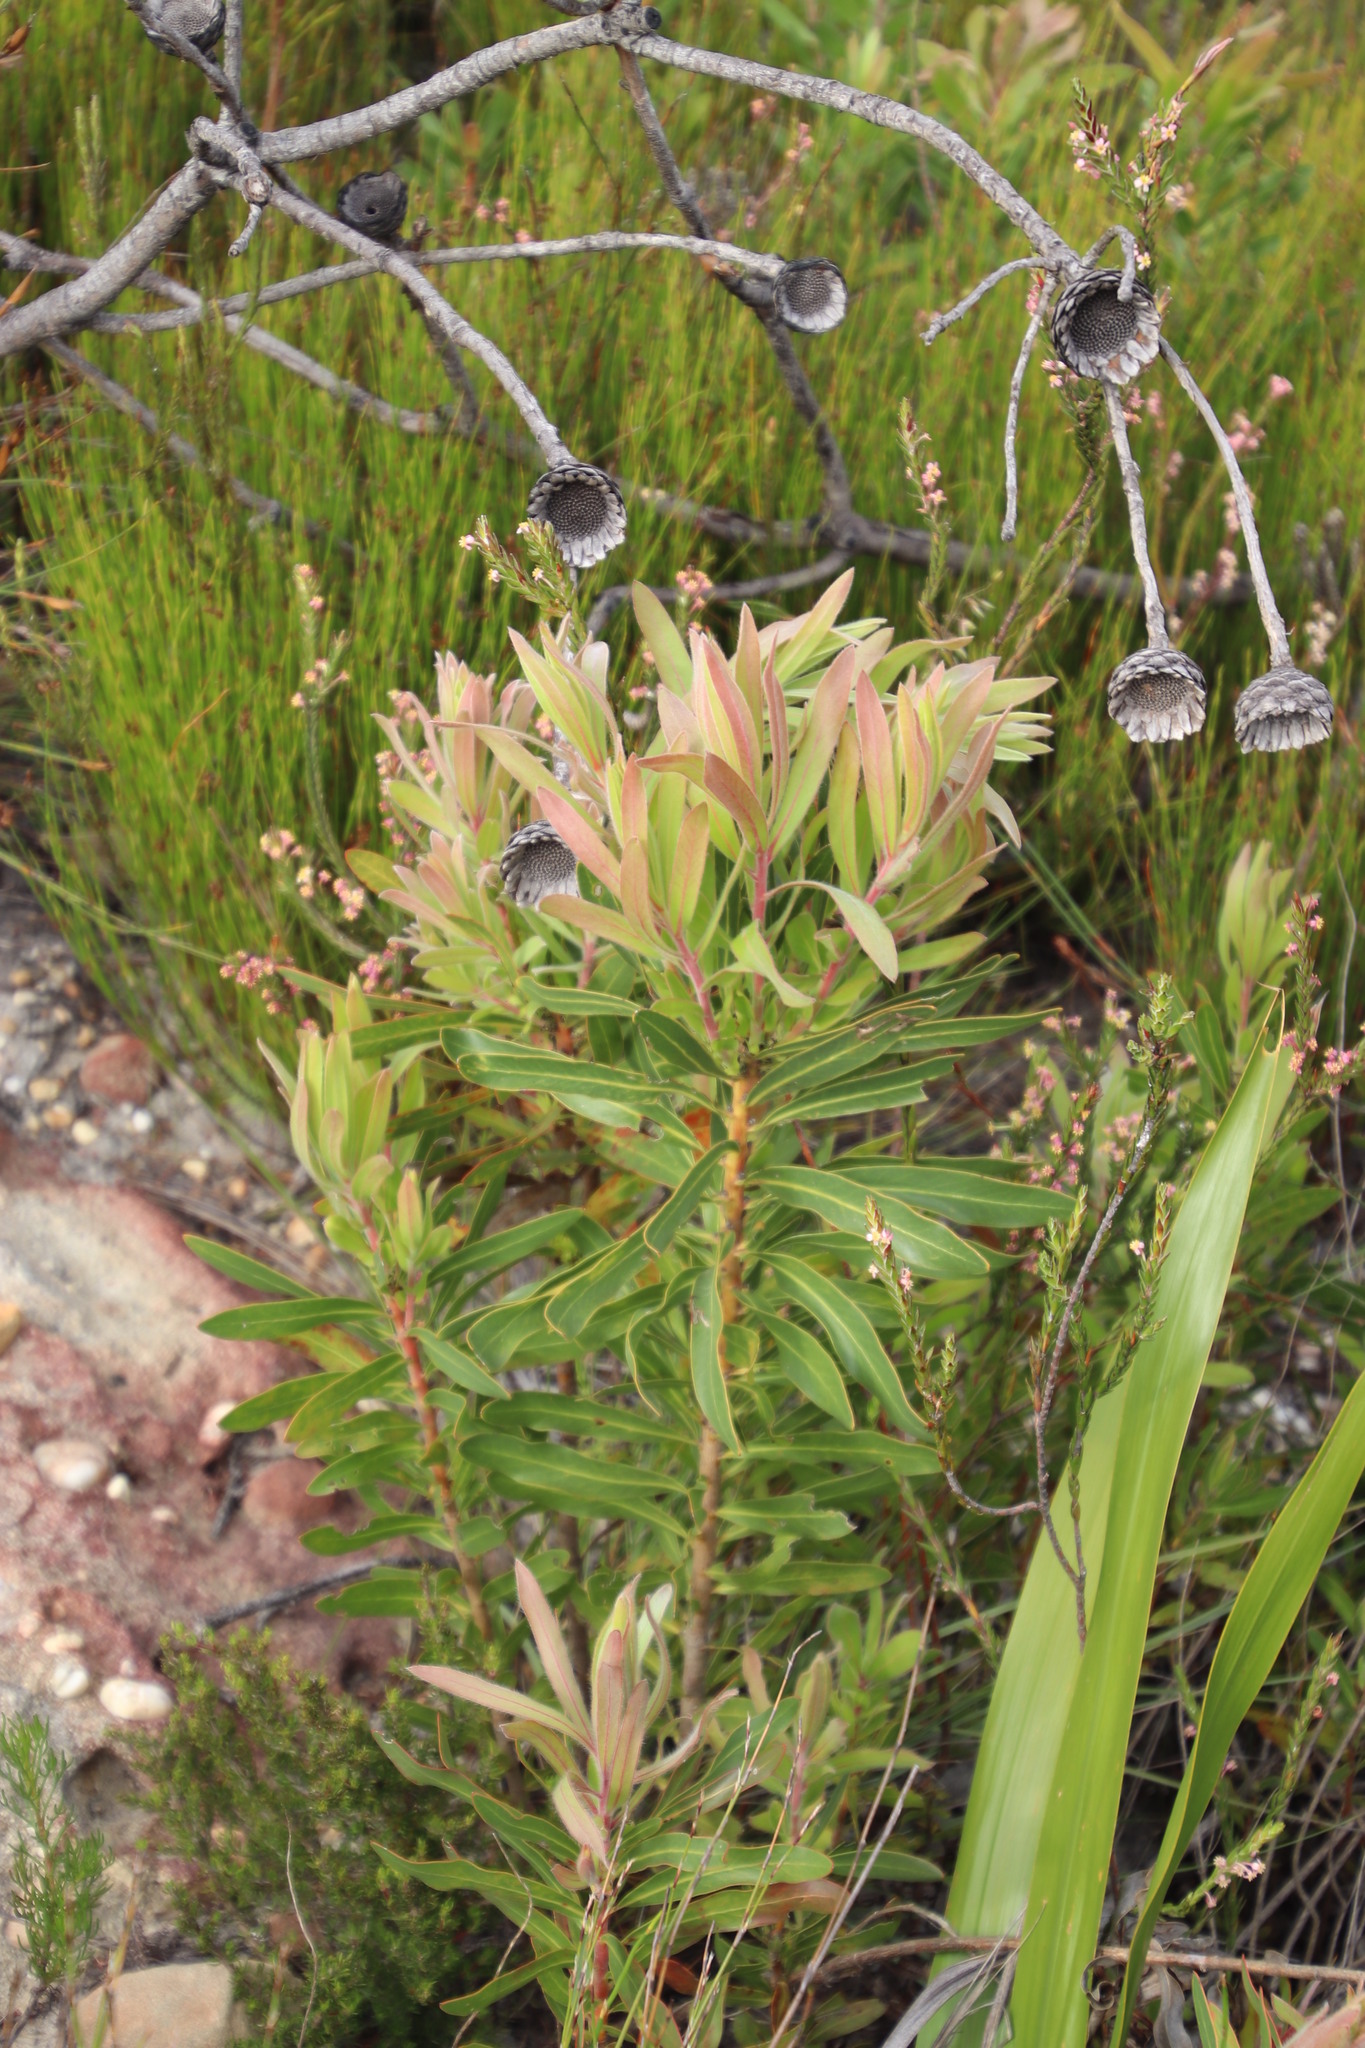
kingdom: Plantae
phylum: Tracheophyta
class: Magnoliopsida
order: Proteales
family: Proteaceae
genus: Protea
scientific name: Protea lepidocarpodendron
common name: Black-bearded protea
